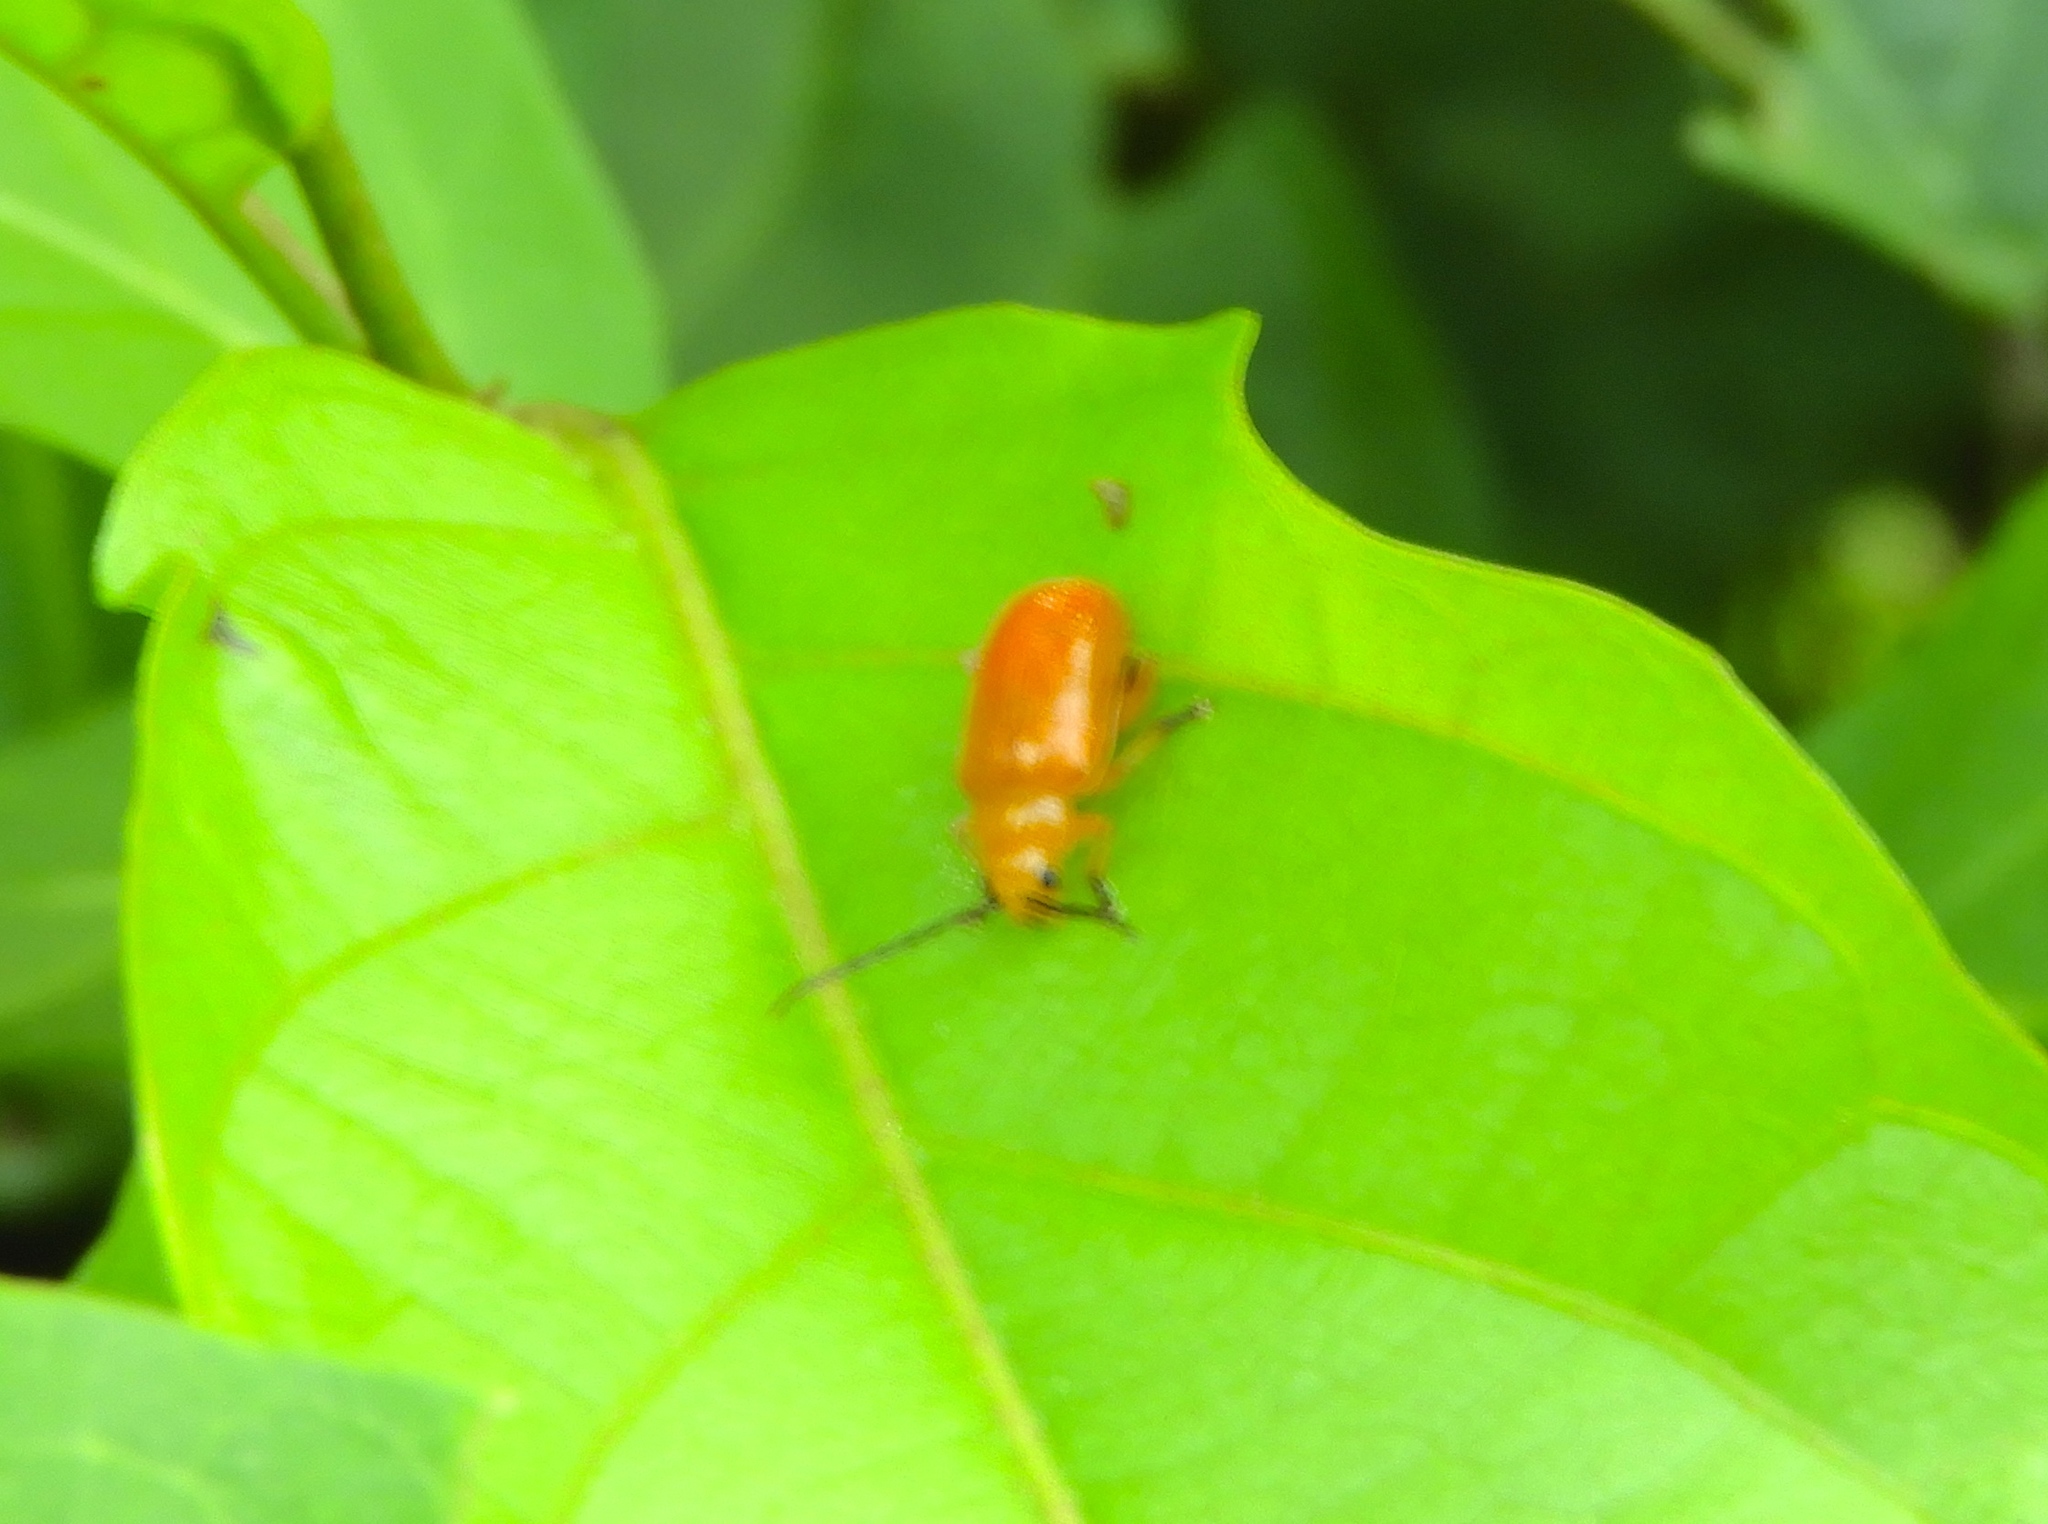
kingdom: Animalia
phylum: Arthropoda
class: Insecta
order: Coleoptera
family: Chrysomelidae
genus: Alticini
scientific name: Alticini
